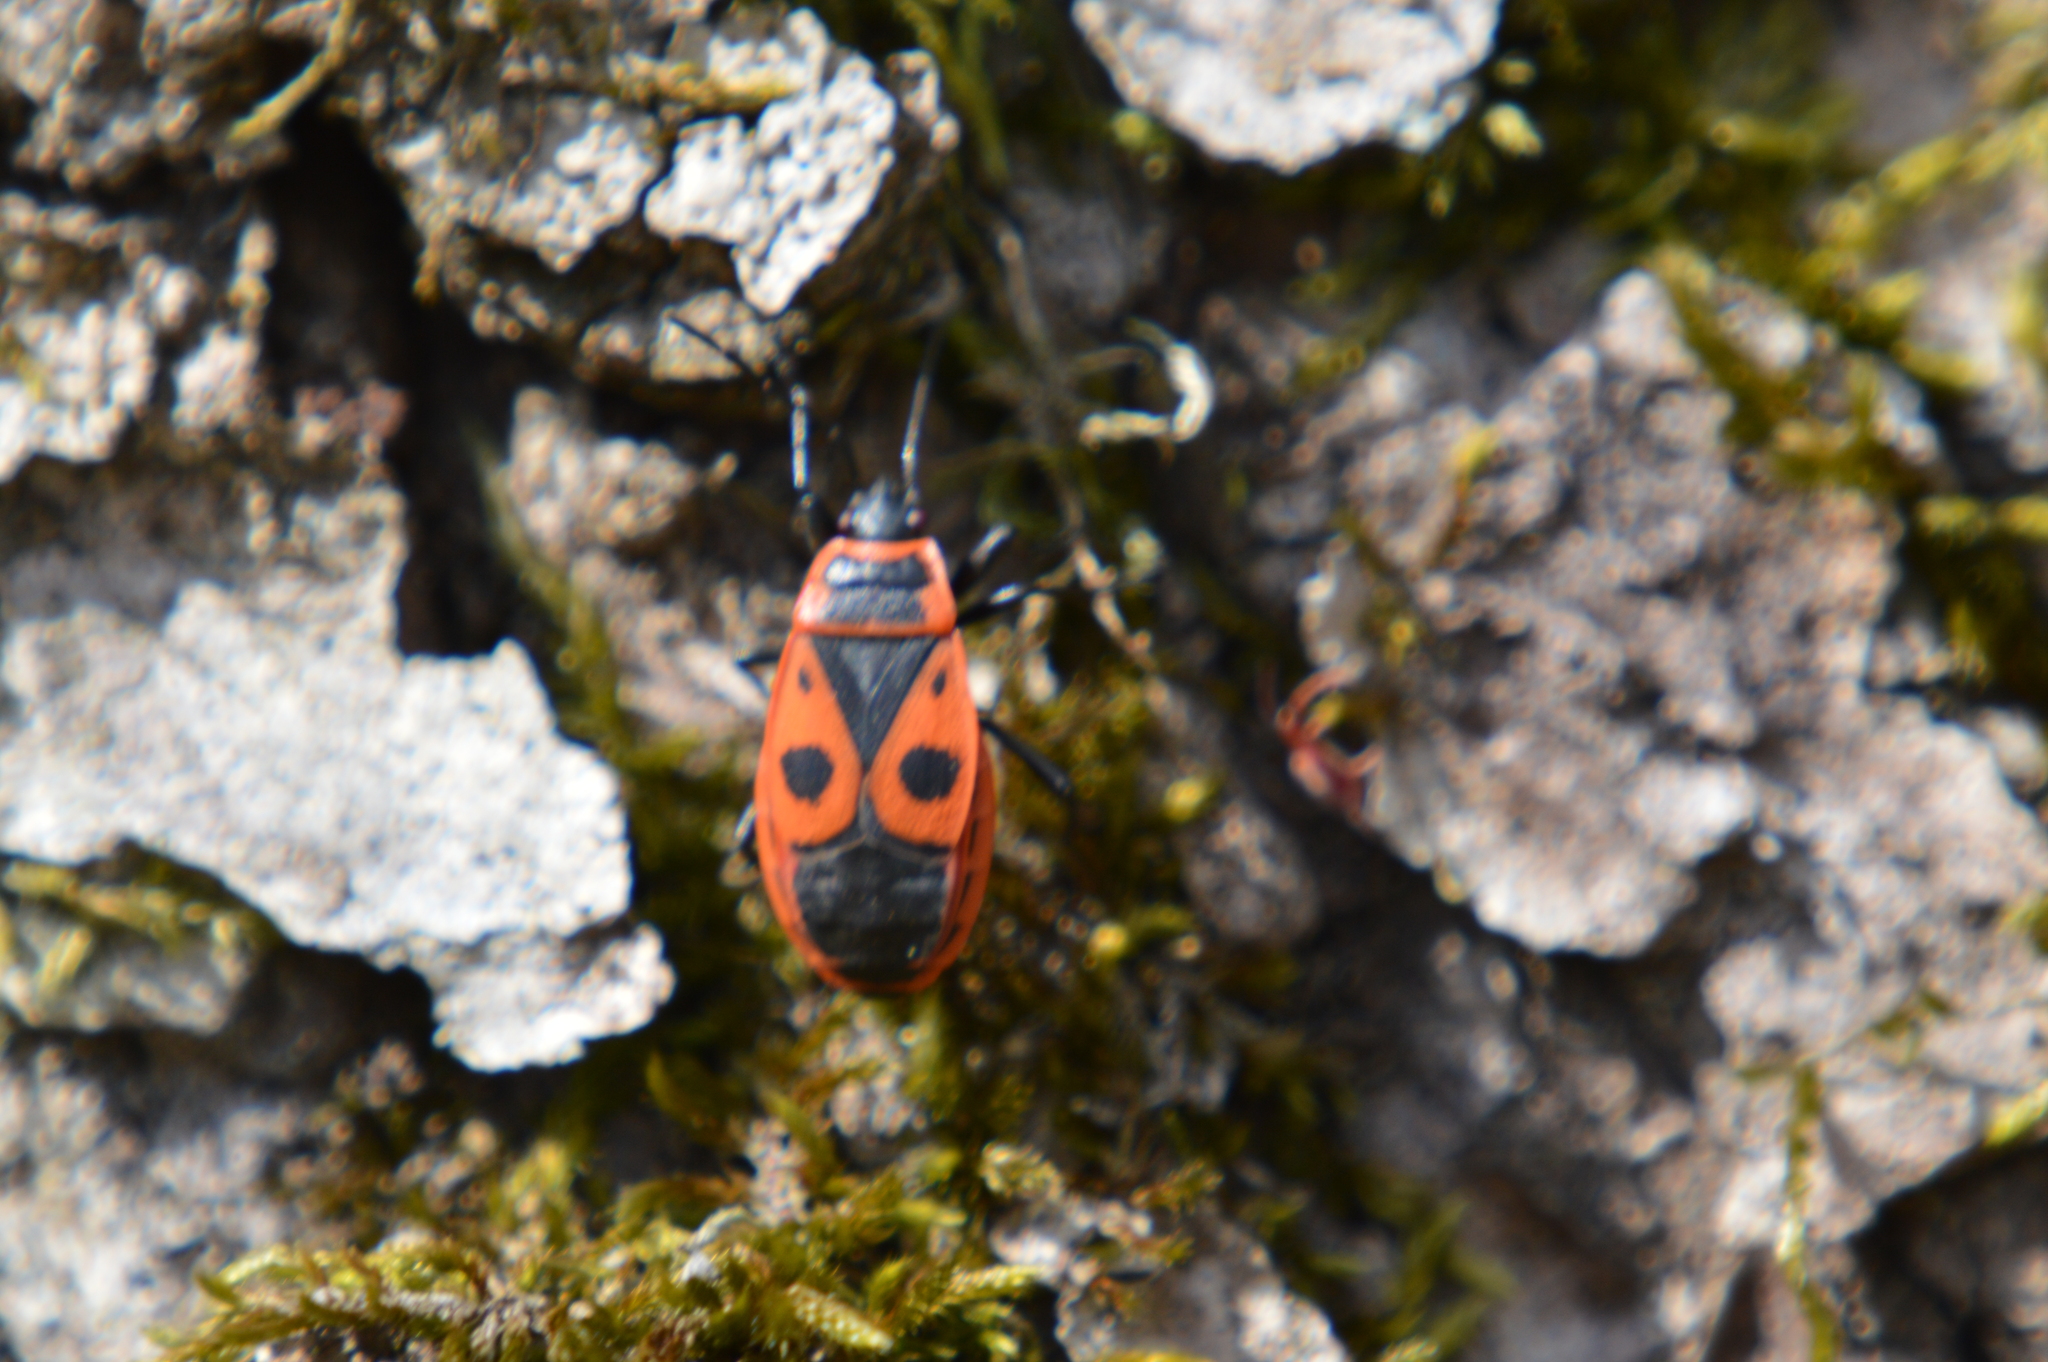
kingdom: Animalia
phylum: Arthropoda
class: Insecta
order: Hemiptera
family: Pyrrhocoridae
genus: Pyrrhocoris
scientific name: Pyrrhocoris apterus
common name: Firebug
